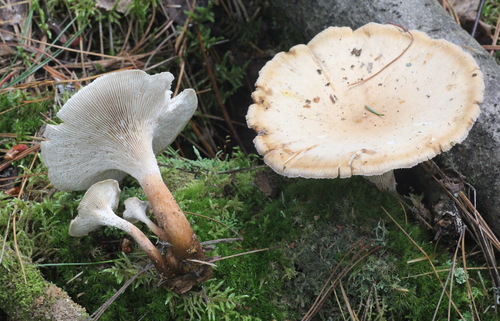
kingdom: Fungi
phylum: Basidiomycota
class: Agaricomycetes
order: Gloeophyllales
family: Gloeophyllaceae
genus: Neolentinus
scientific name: Neolentinus lepideus
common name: Scaly sawgill
